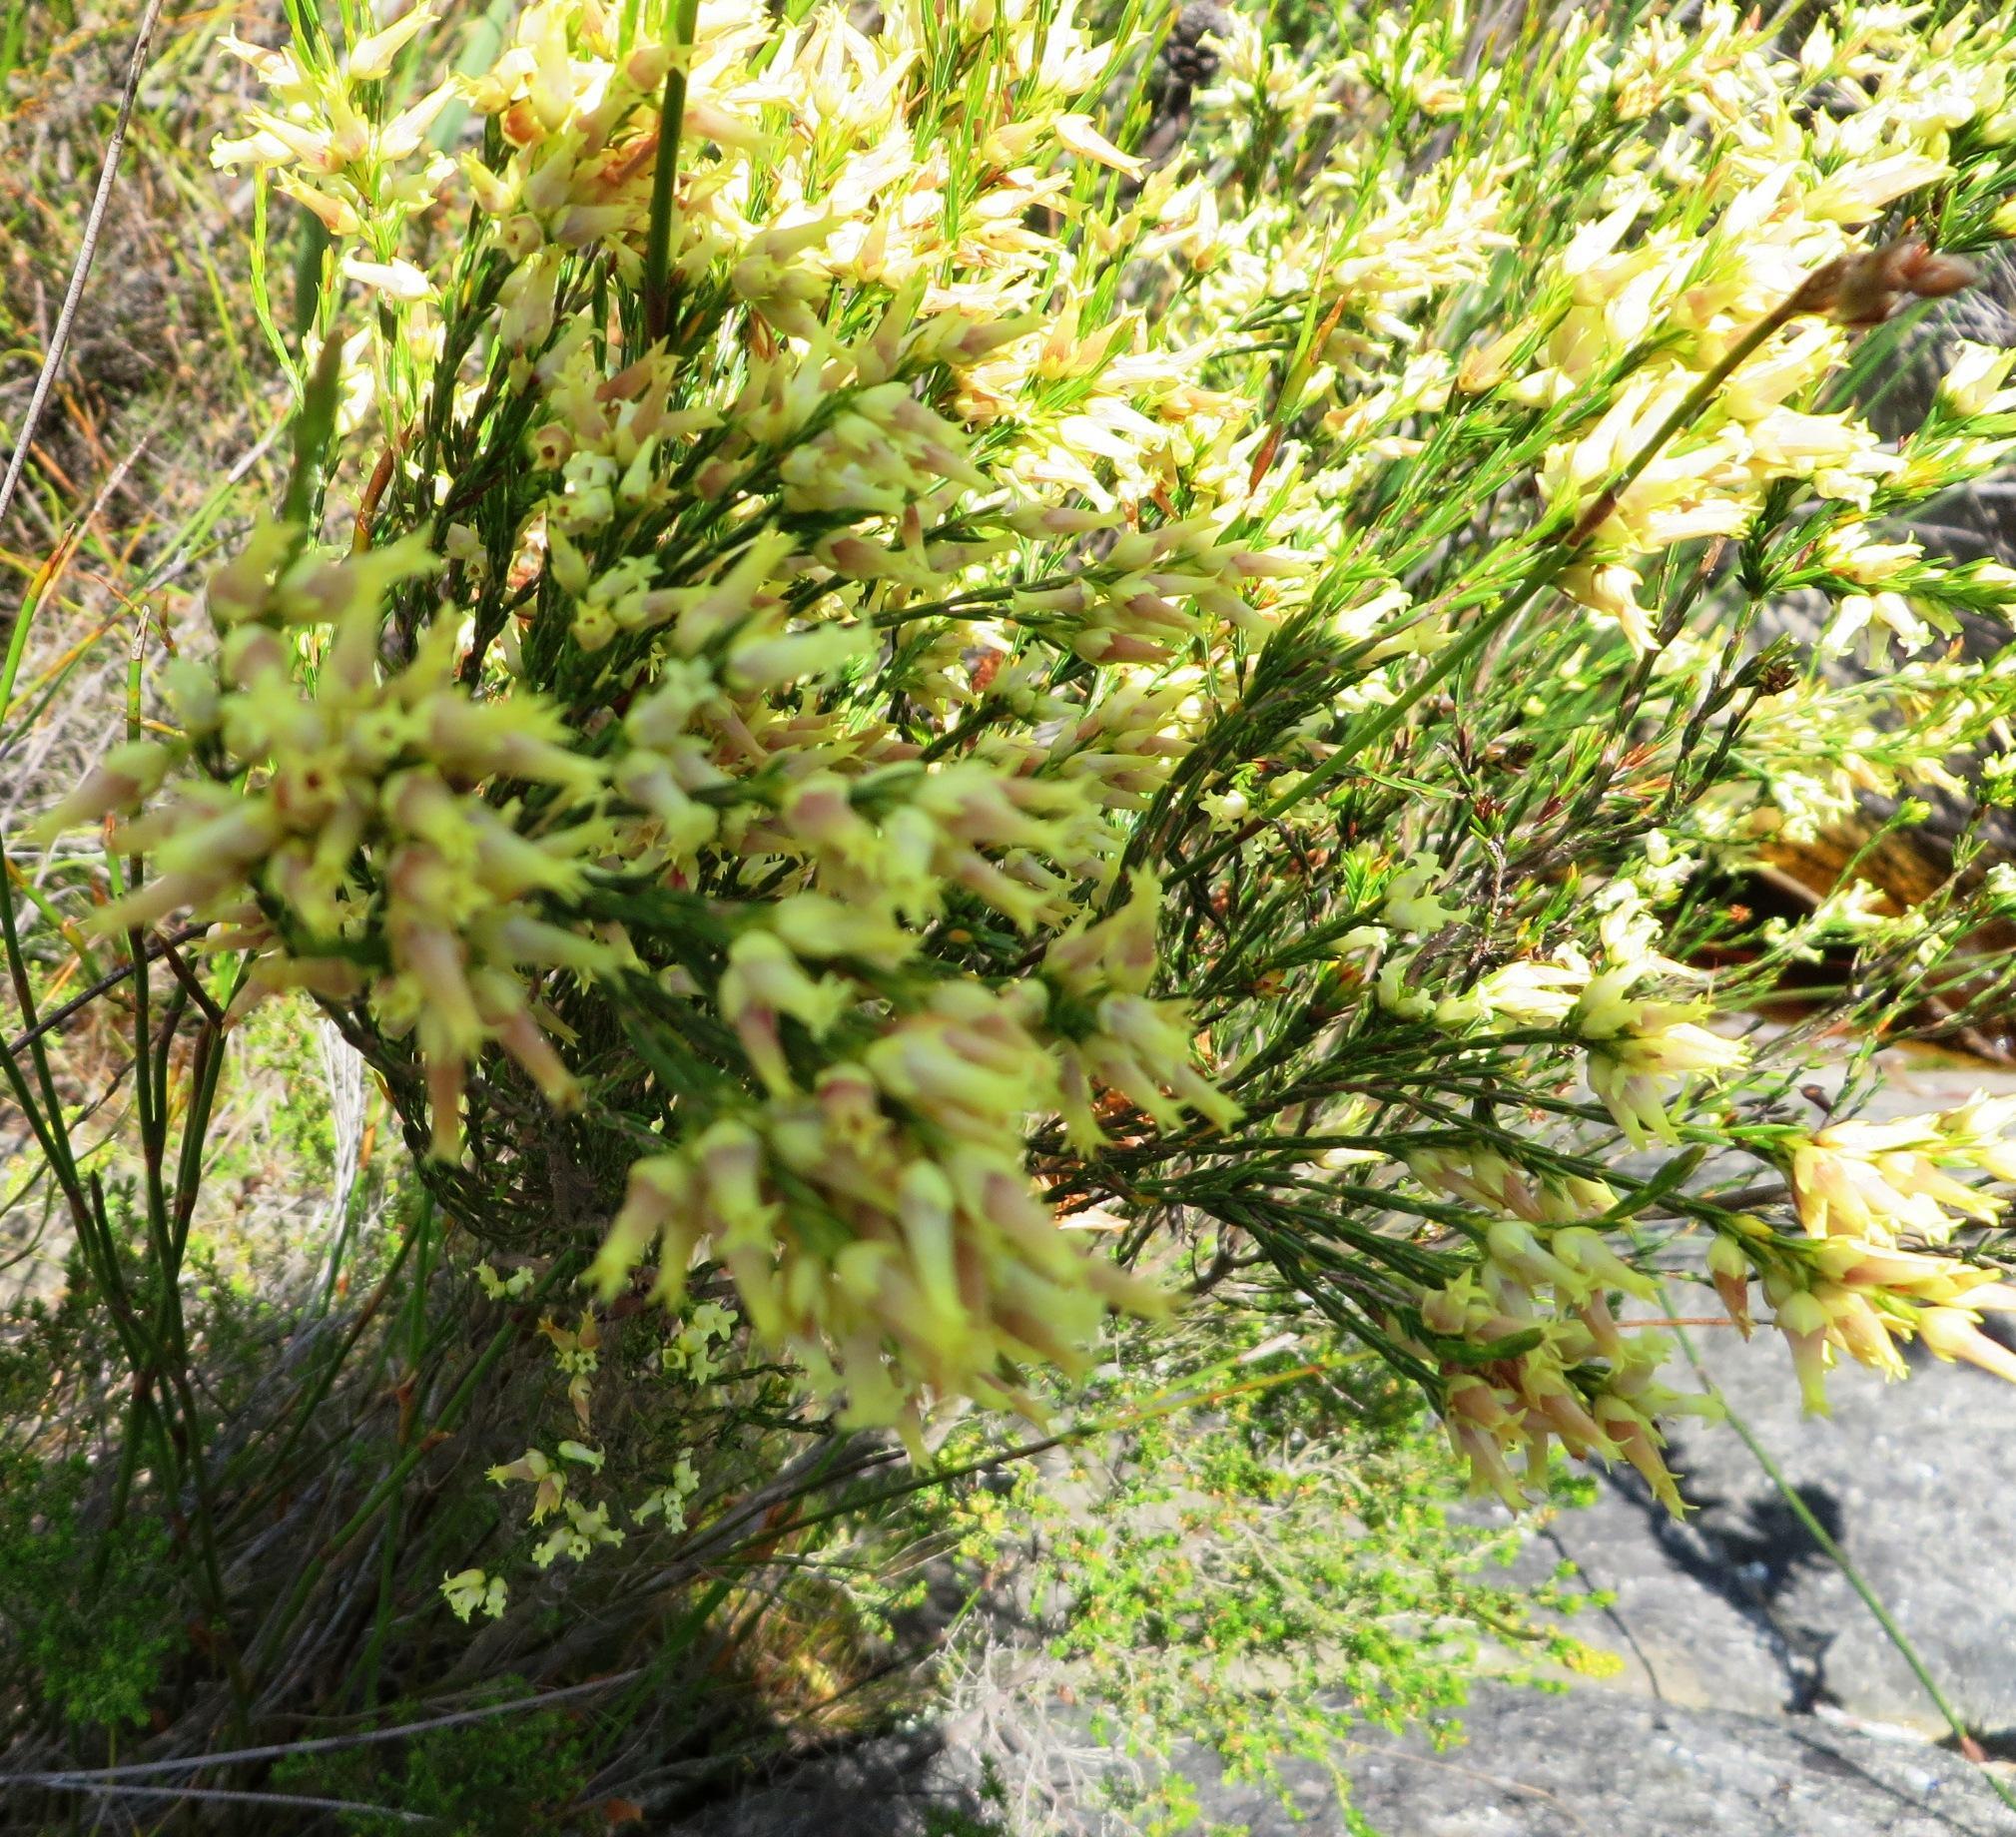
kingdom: Plantae
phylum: Tracheophyta
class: Magnoliopsida
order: Ericales
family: Ericaceae
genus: Erica
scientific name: Erica lutea
